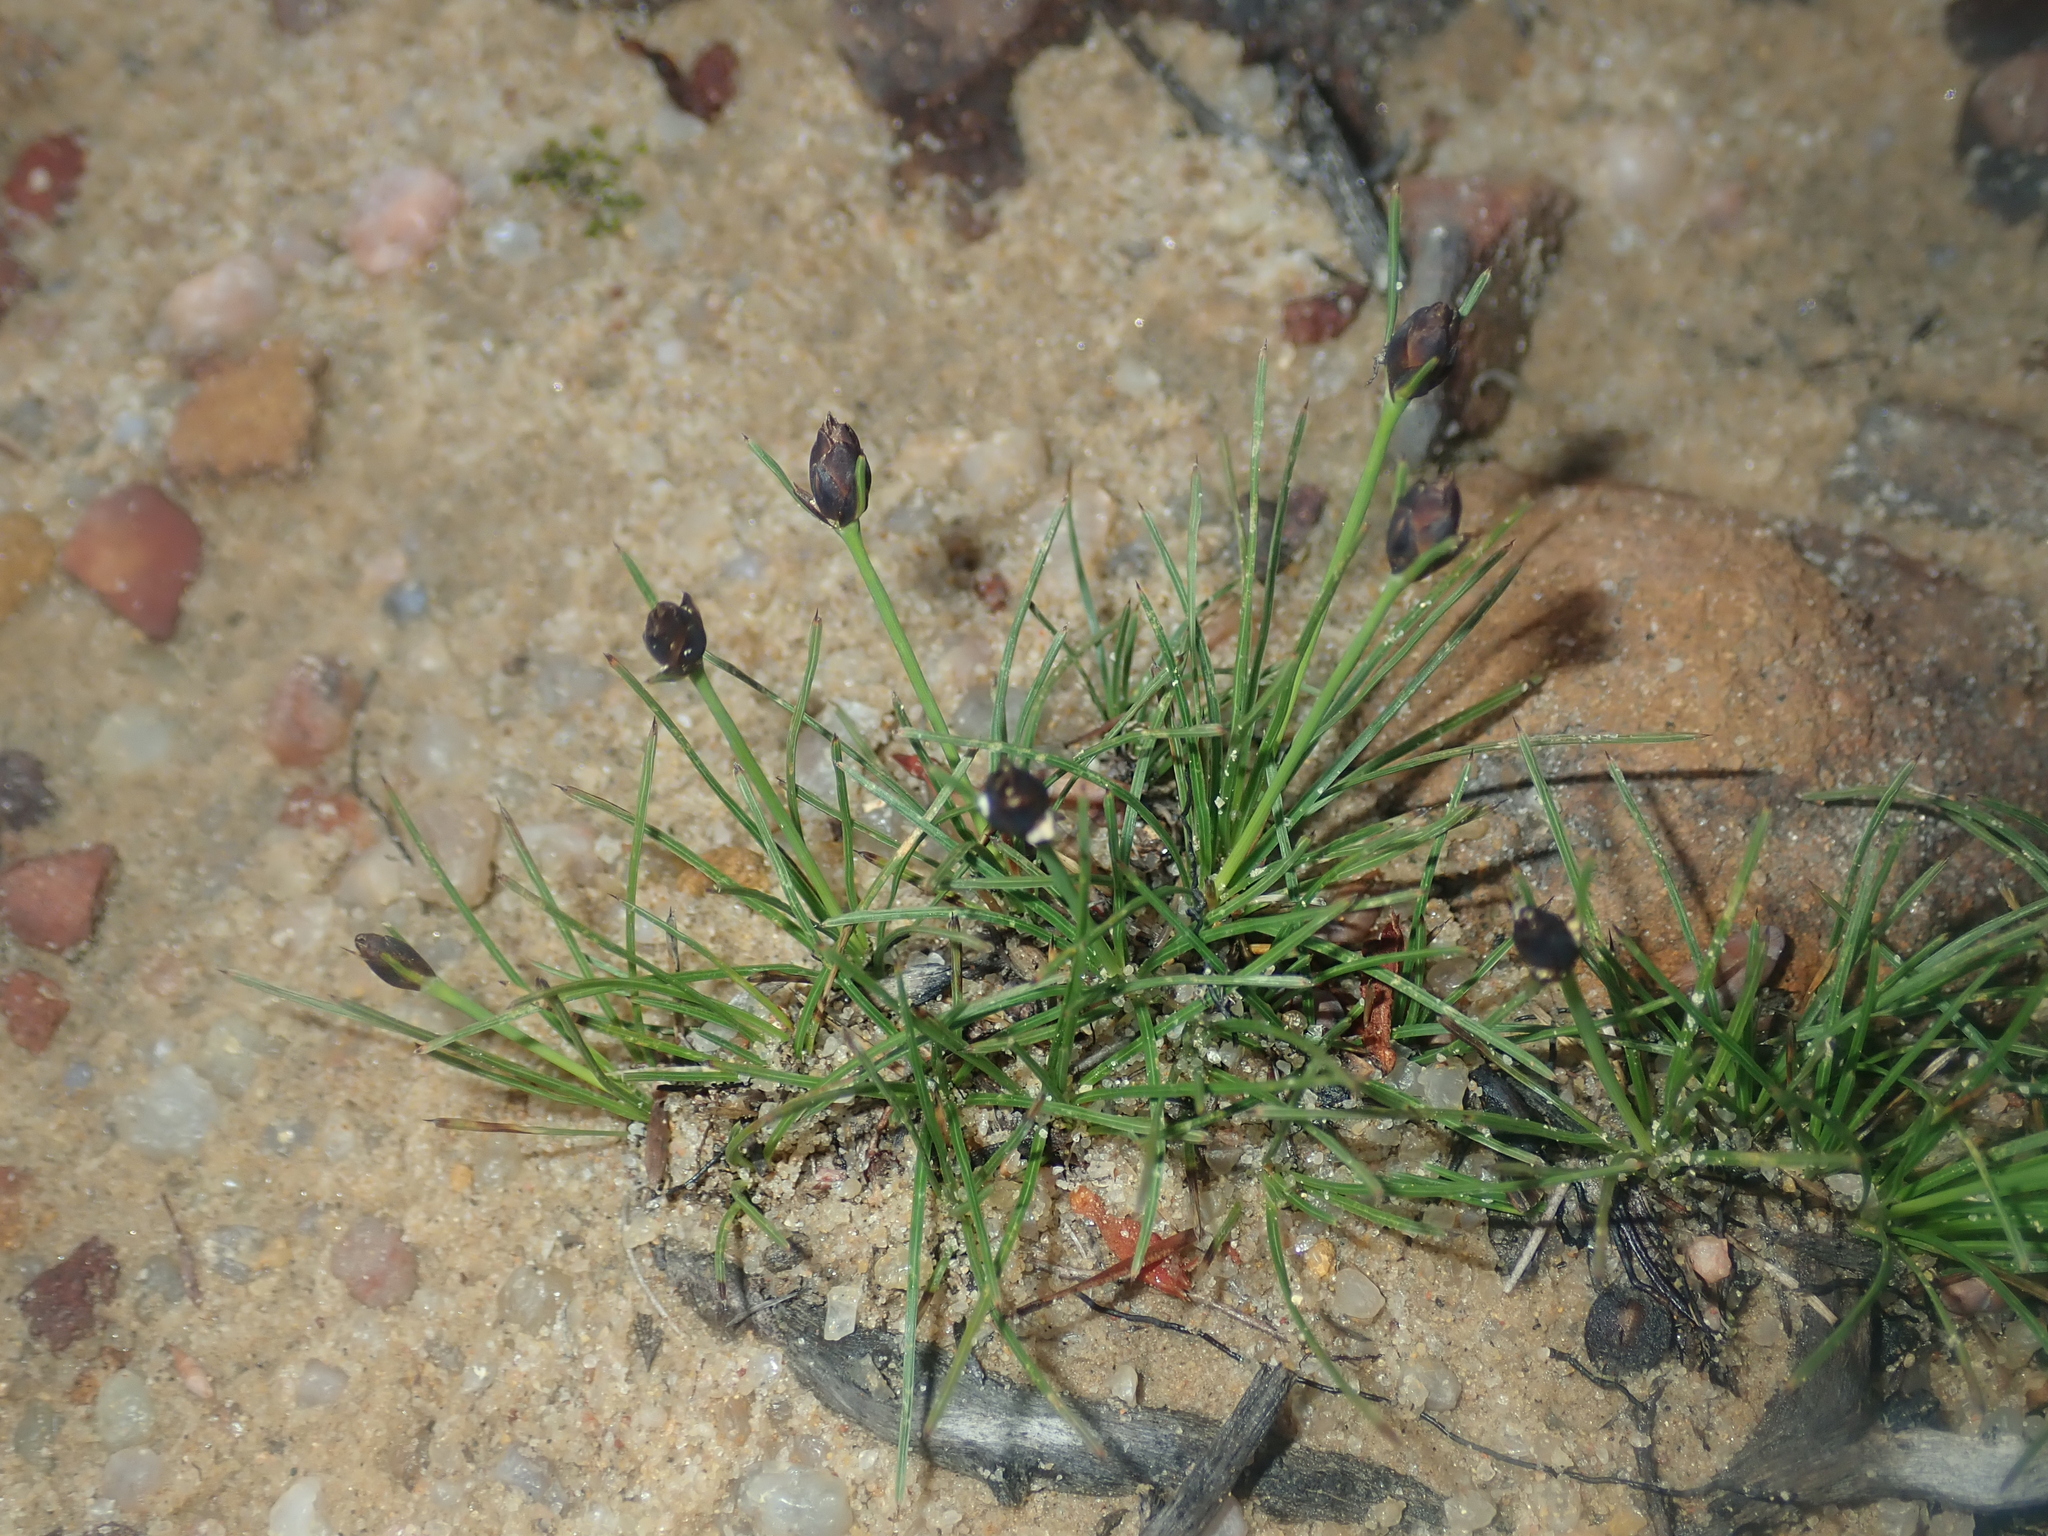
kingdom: Plantae
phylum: Tracheophyta
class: Liliopsida
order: Asparagales
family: Boryaceae
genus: Borya
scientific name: Borya scirpoidea
